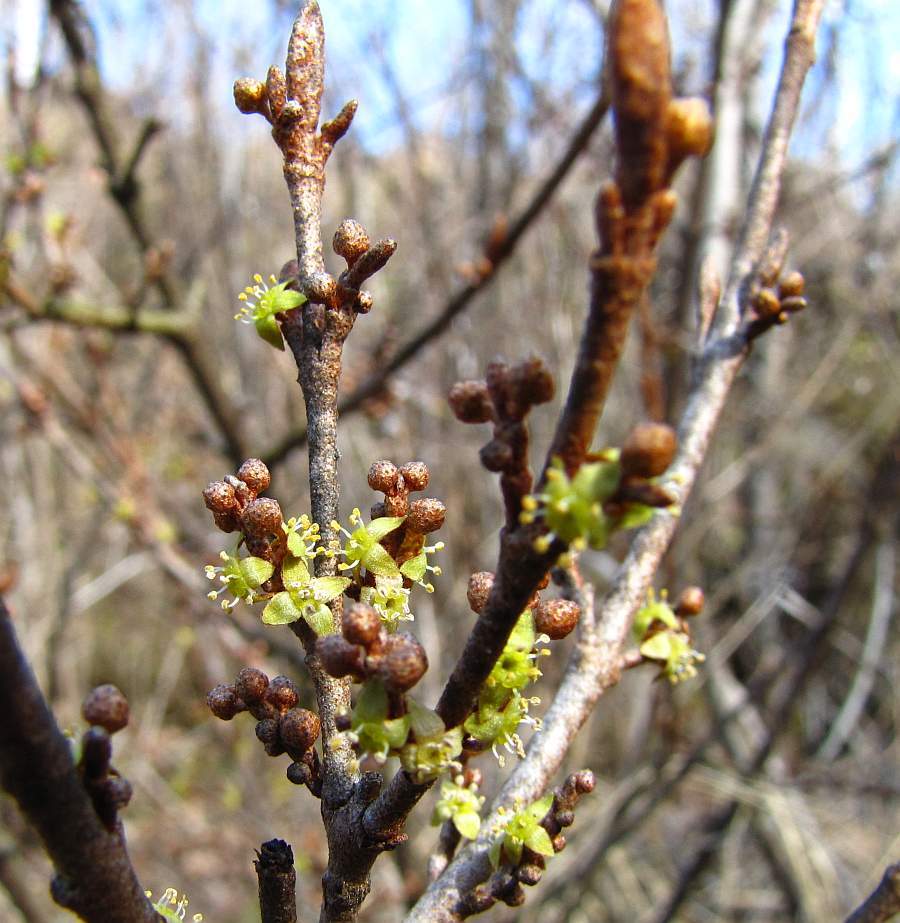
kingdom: Plantae
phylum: Tracheophyta
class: Magnoliopsida
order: Rosales
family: Elaeagnaceae
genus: Shepherdia
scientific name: Shepherdia canadensis
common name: Soapberry
